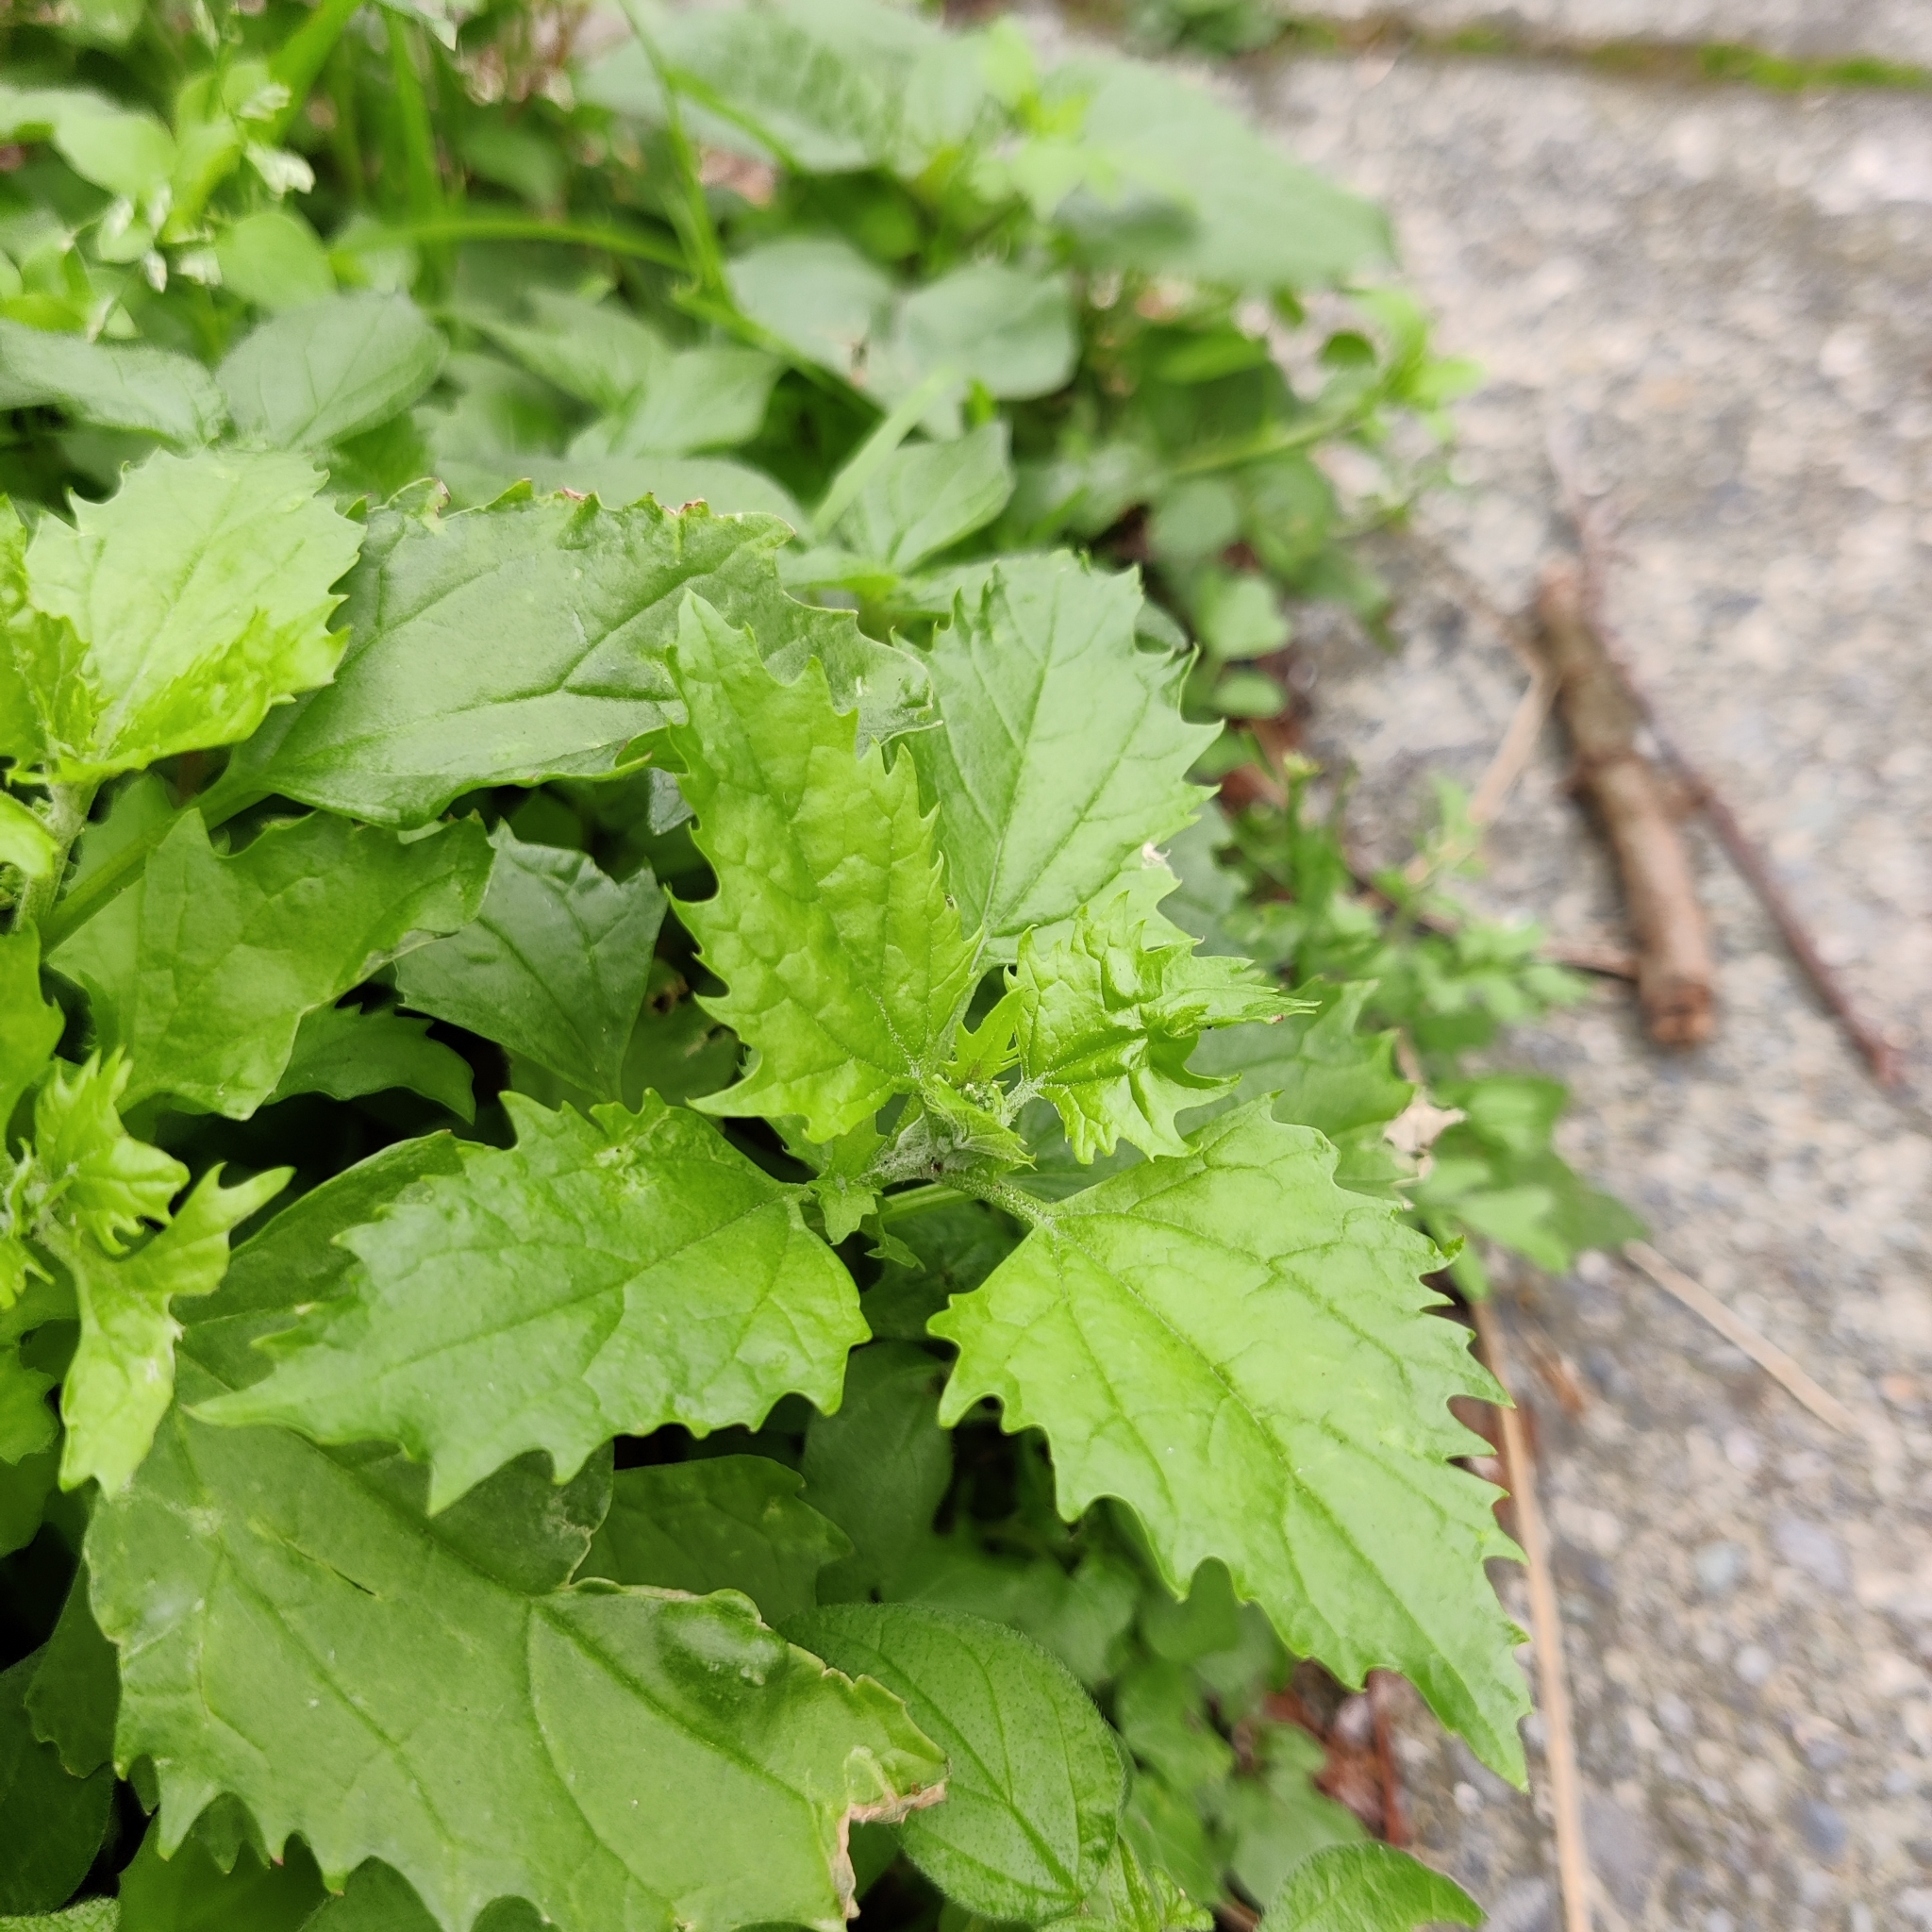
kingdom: Plantae
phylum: Tracheophyta
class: Magnoliopsida
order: Caryophyllales
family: Amaranthaceae
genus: Chenopodiastrum
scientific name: Chenopodiastrum murale
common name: Sowbane
